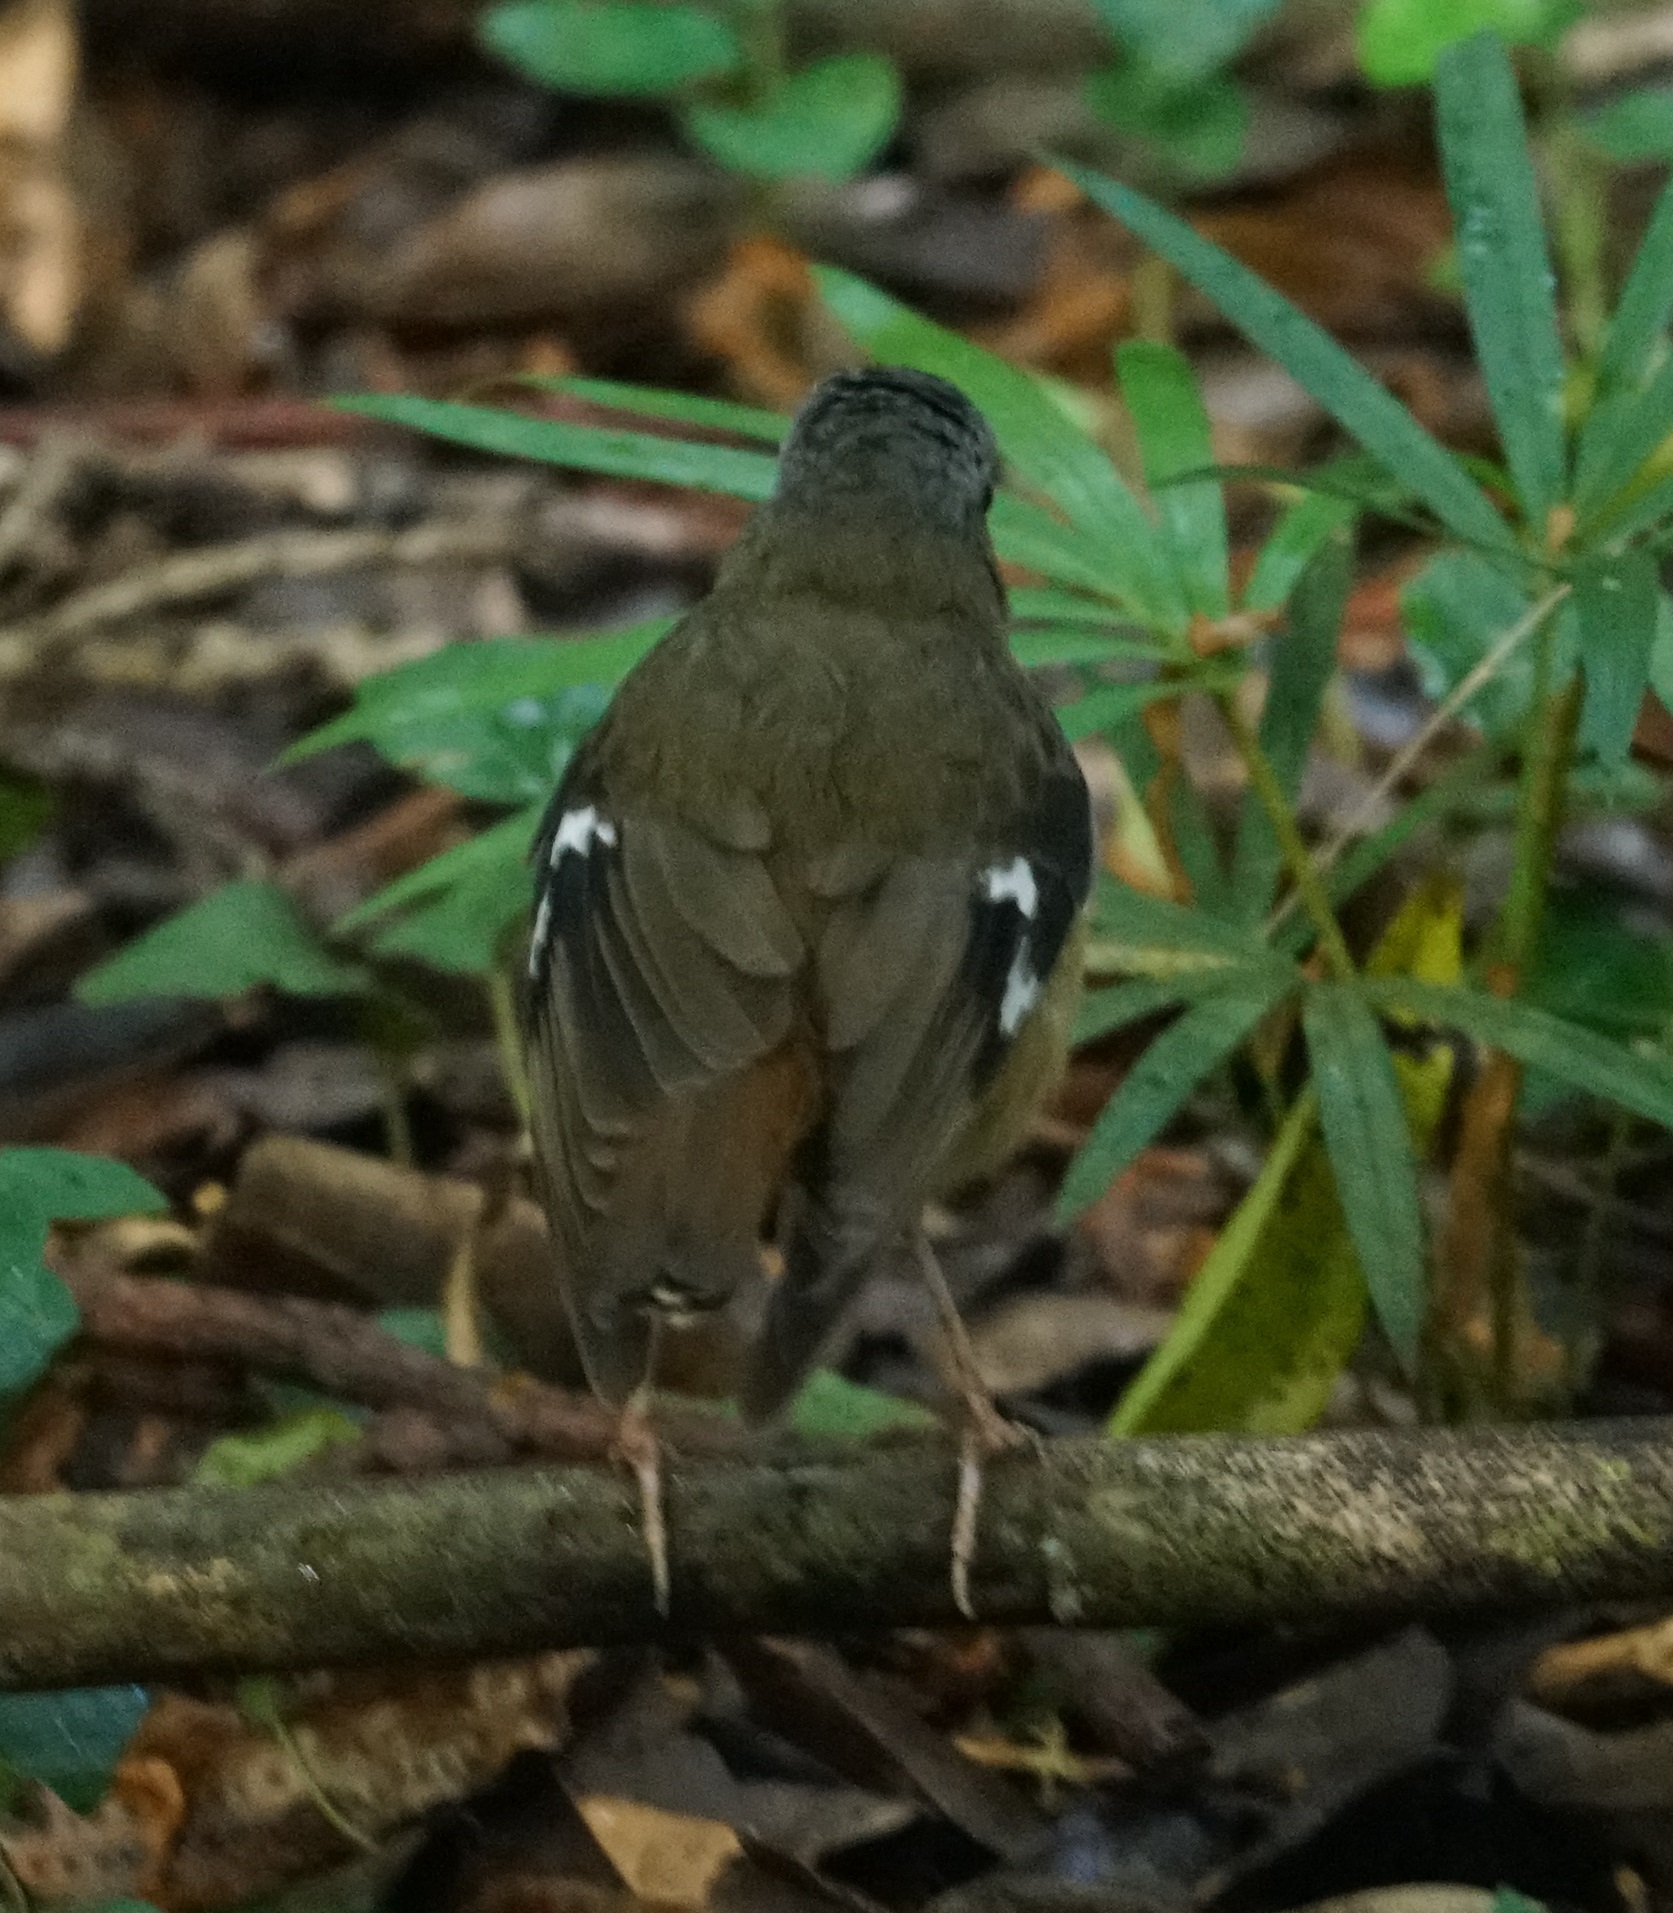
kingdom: Animalia
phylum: Chordata
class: Aves
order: Passeriformes
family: Petroicidae
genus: Heteromyias
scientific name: Heteromyias cinereifrons
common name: Grey-headed robin
